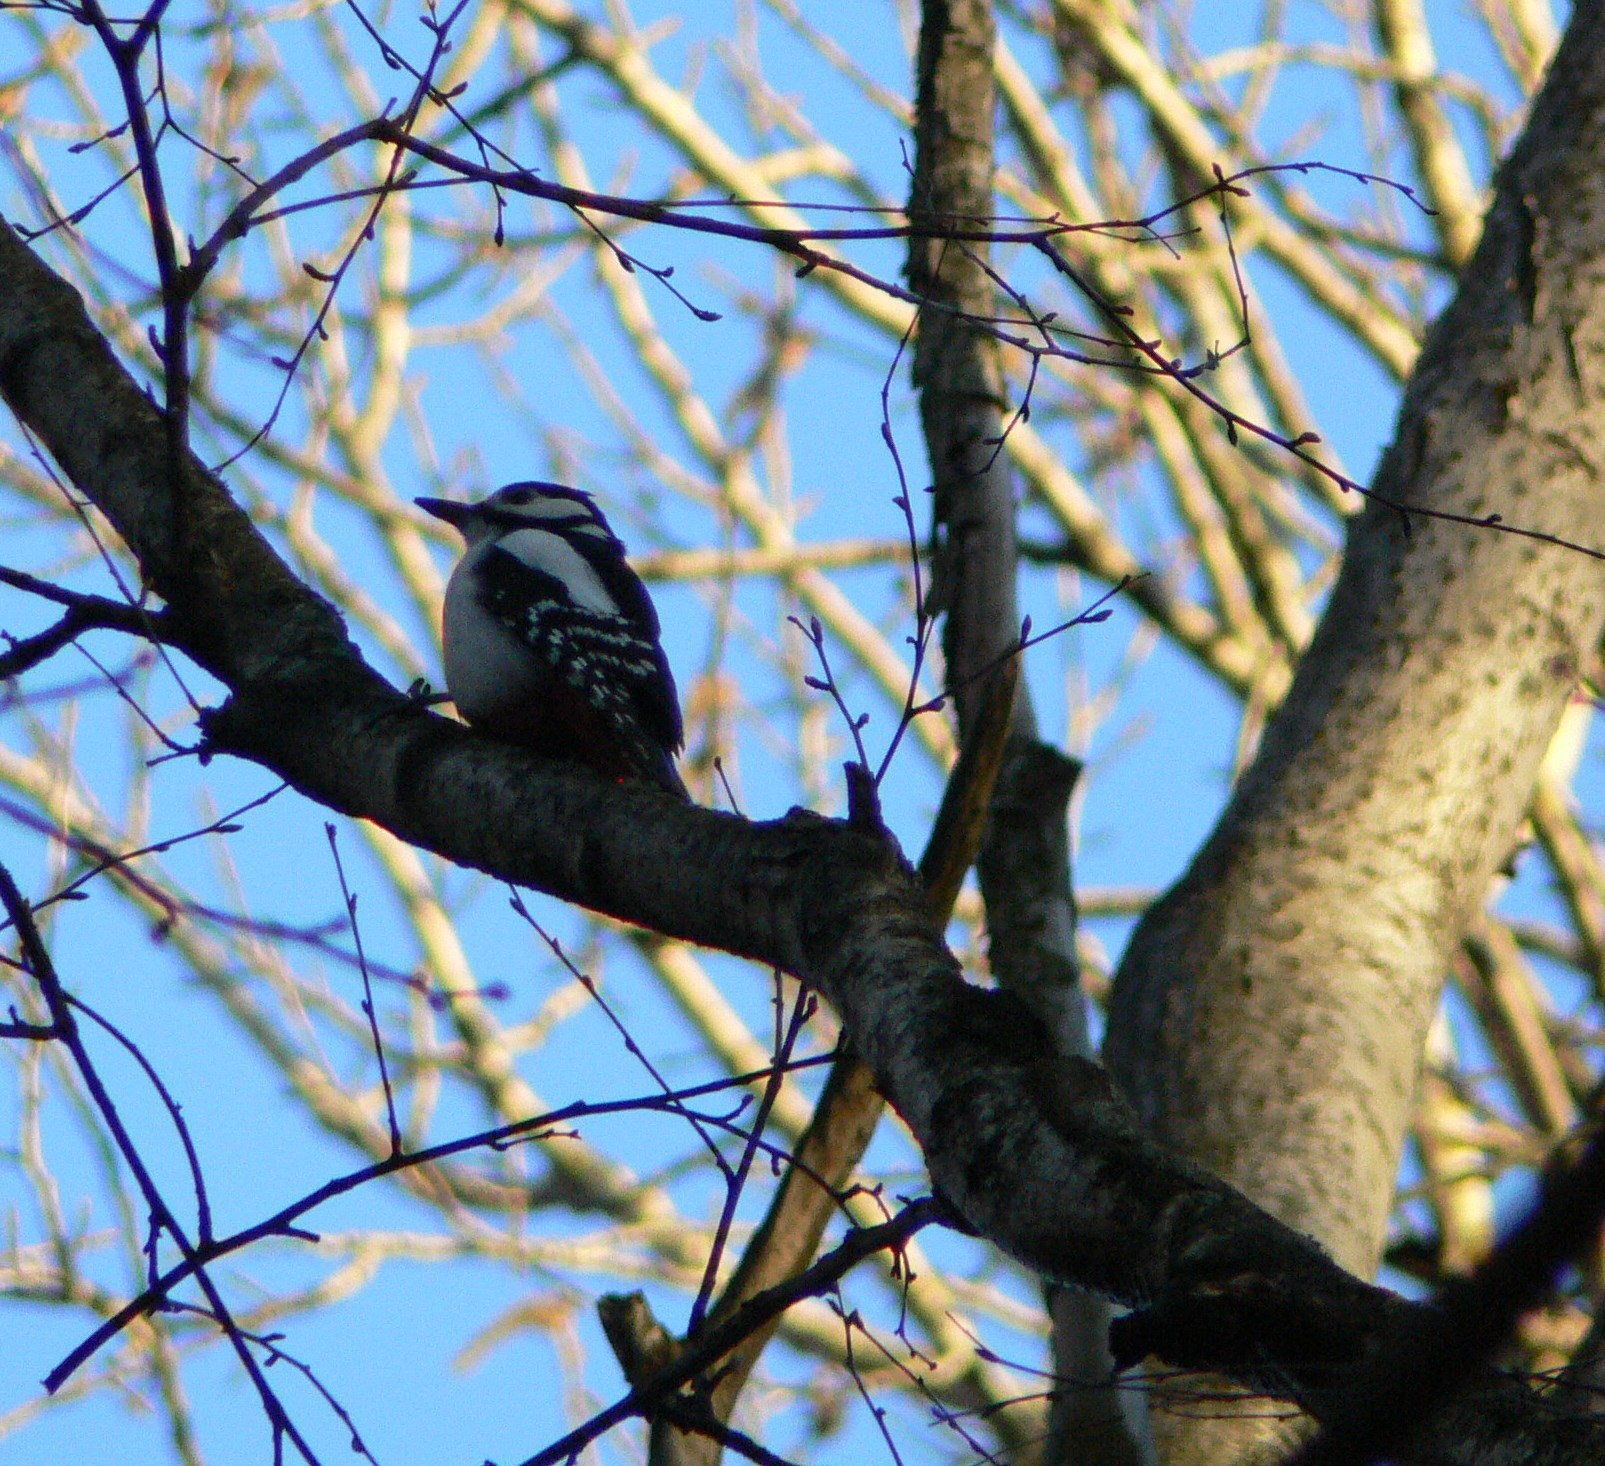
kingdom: Animalia
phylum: Chordata
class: Aves
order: Piciformes
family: Picidae
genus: Dendrocopos
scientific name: Dendrocopos major
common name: Great spotted woodpecker
